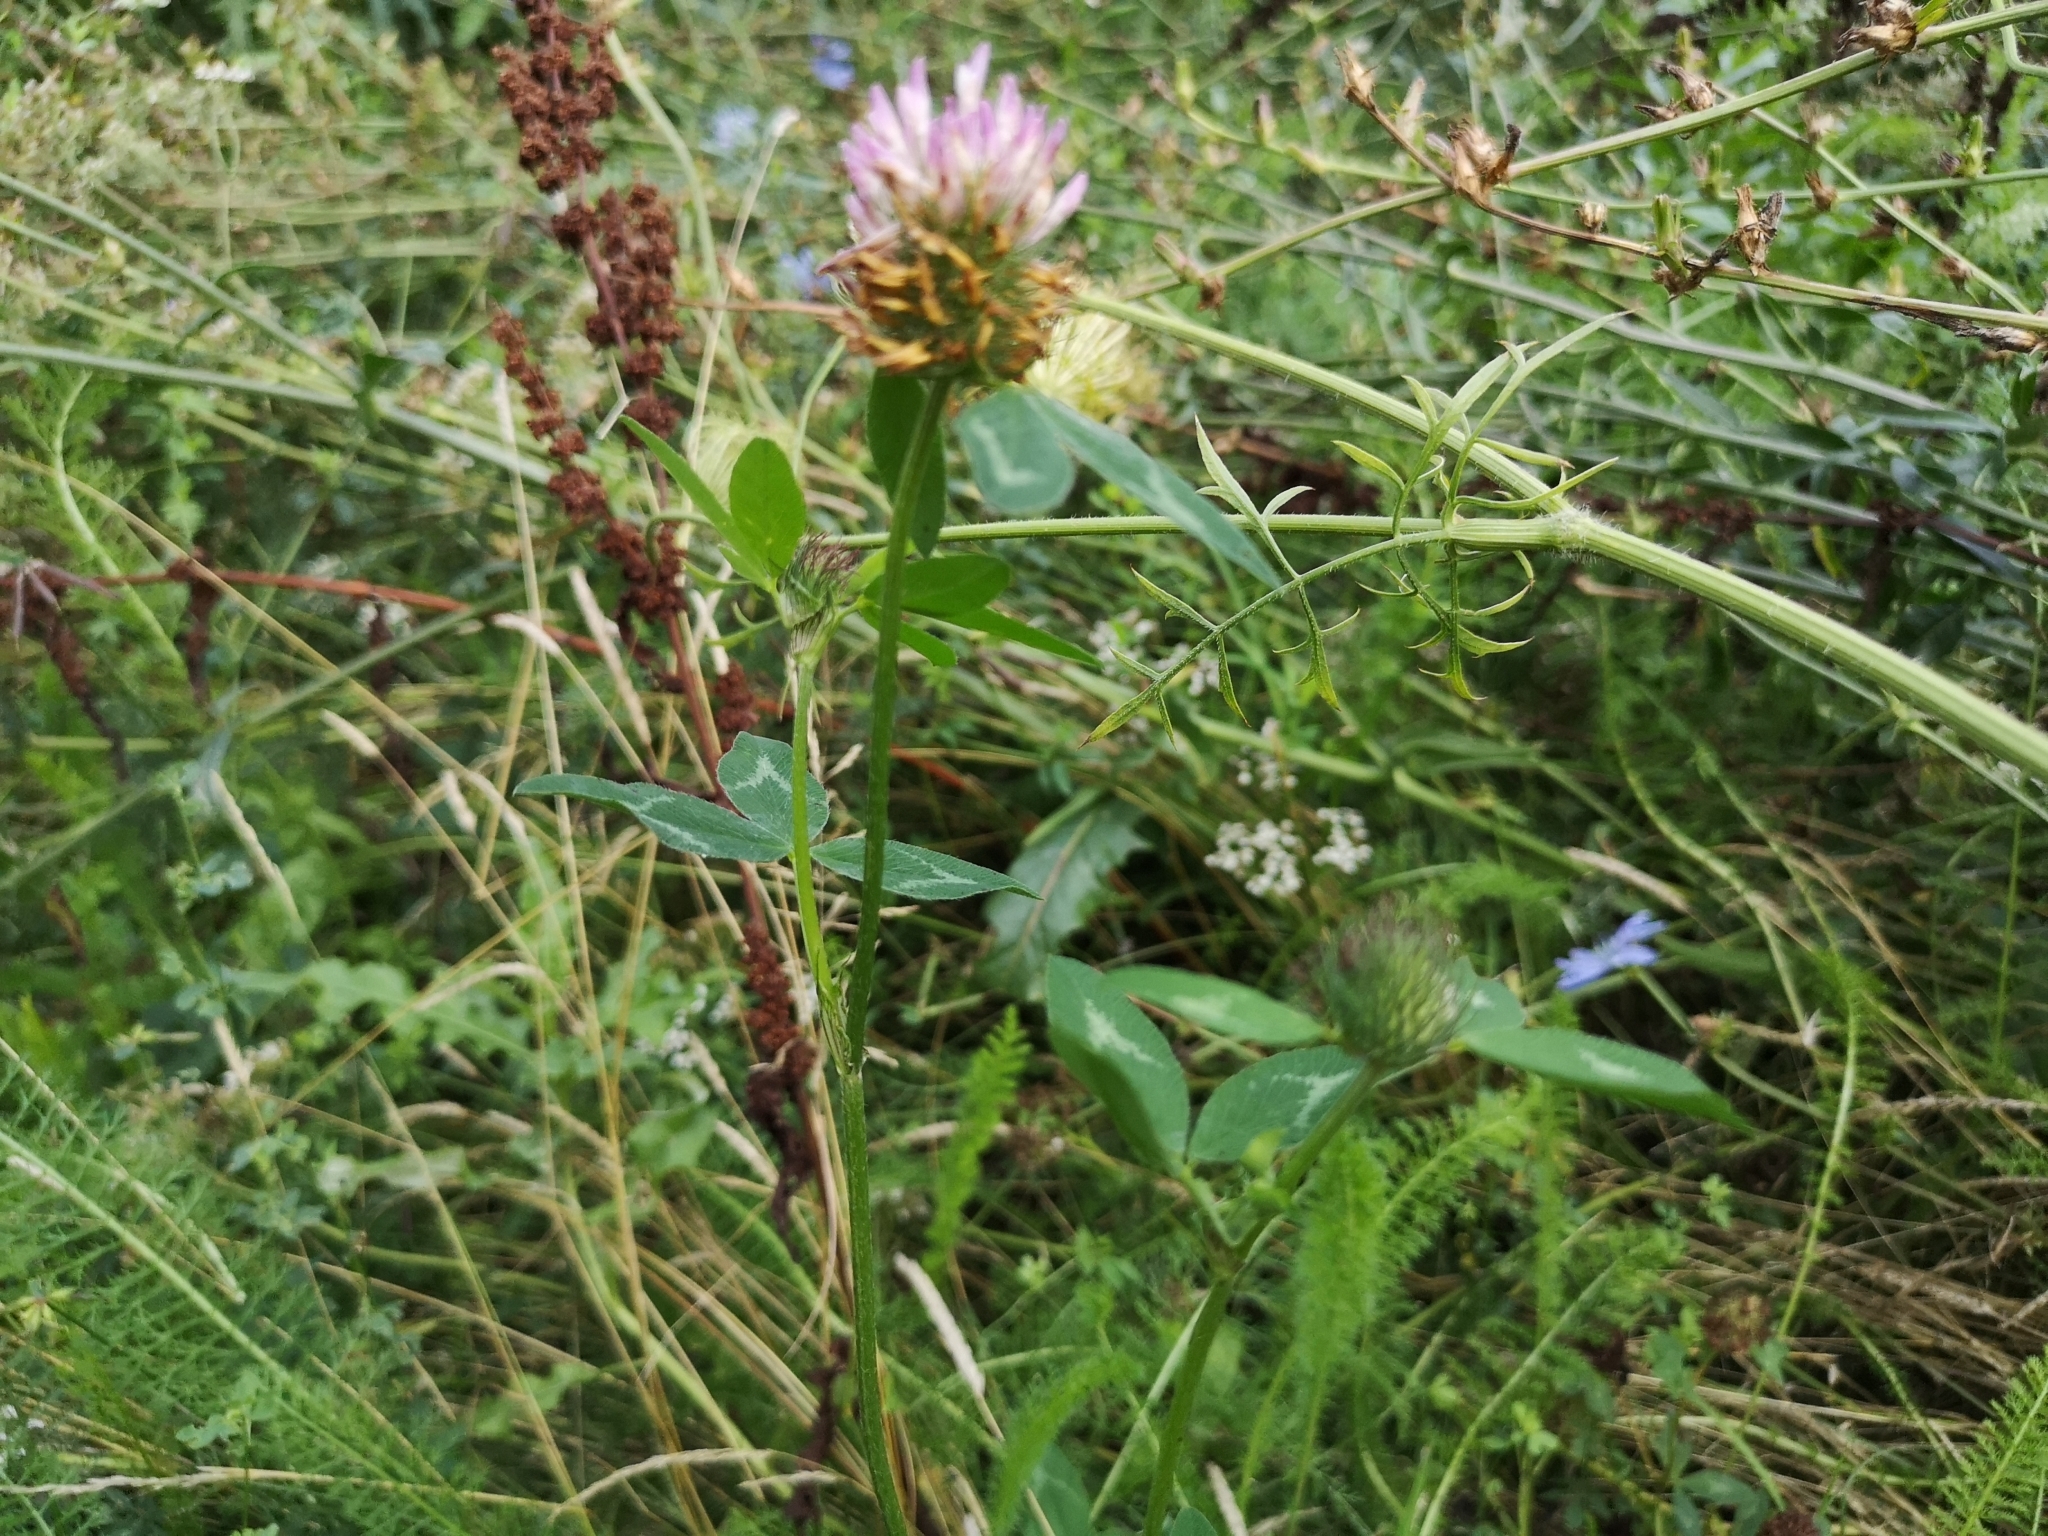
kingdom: Plantae
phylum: Tracheophyta
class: Magnoliopsida
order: Fabales
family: Fabaceae
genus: Trifolium
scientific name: Trifolium pratense
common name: Red clover
